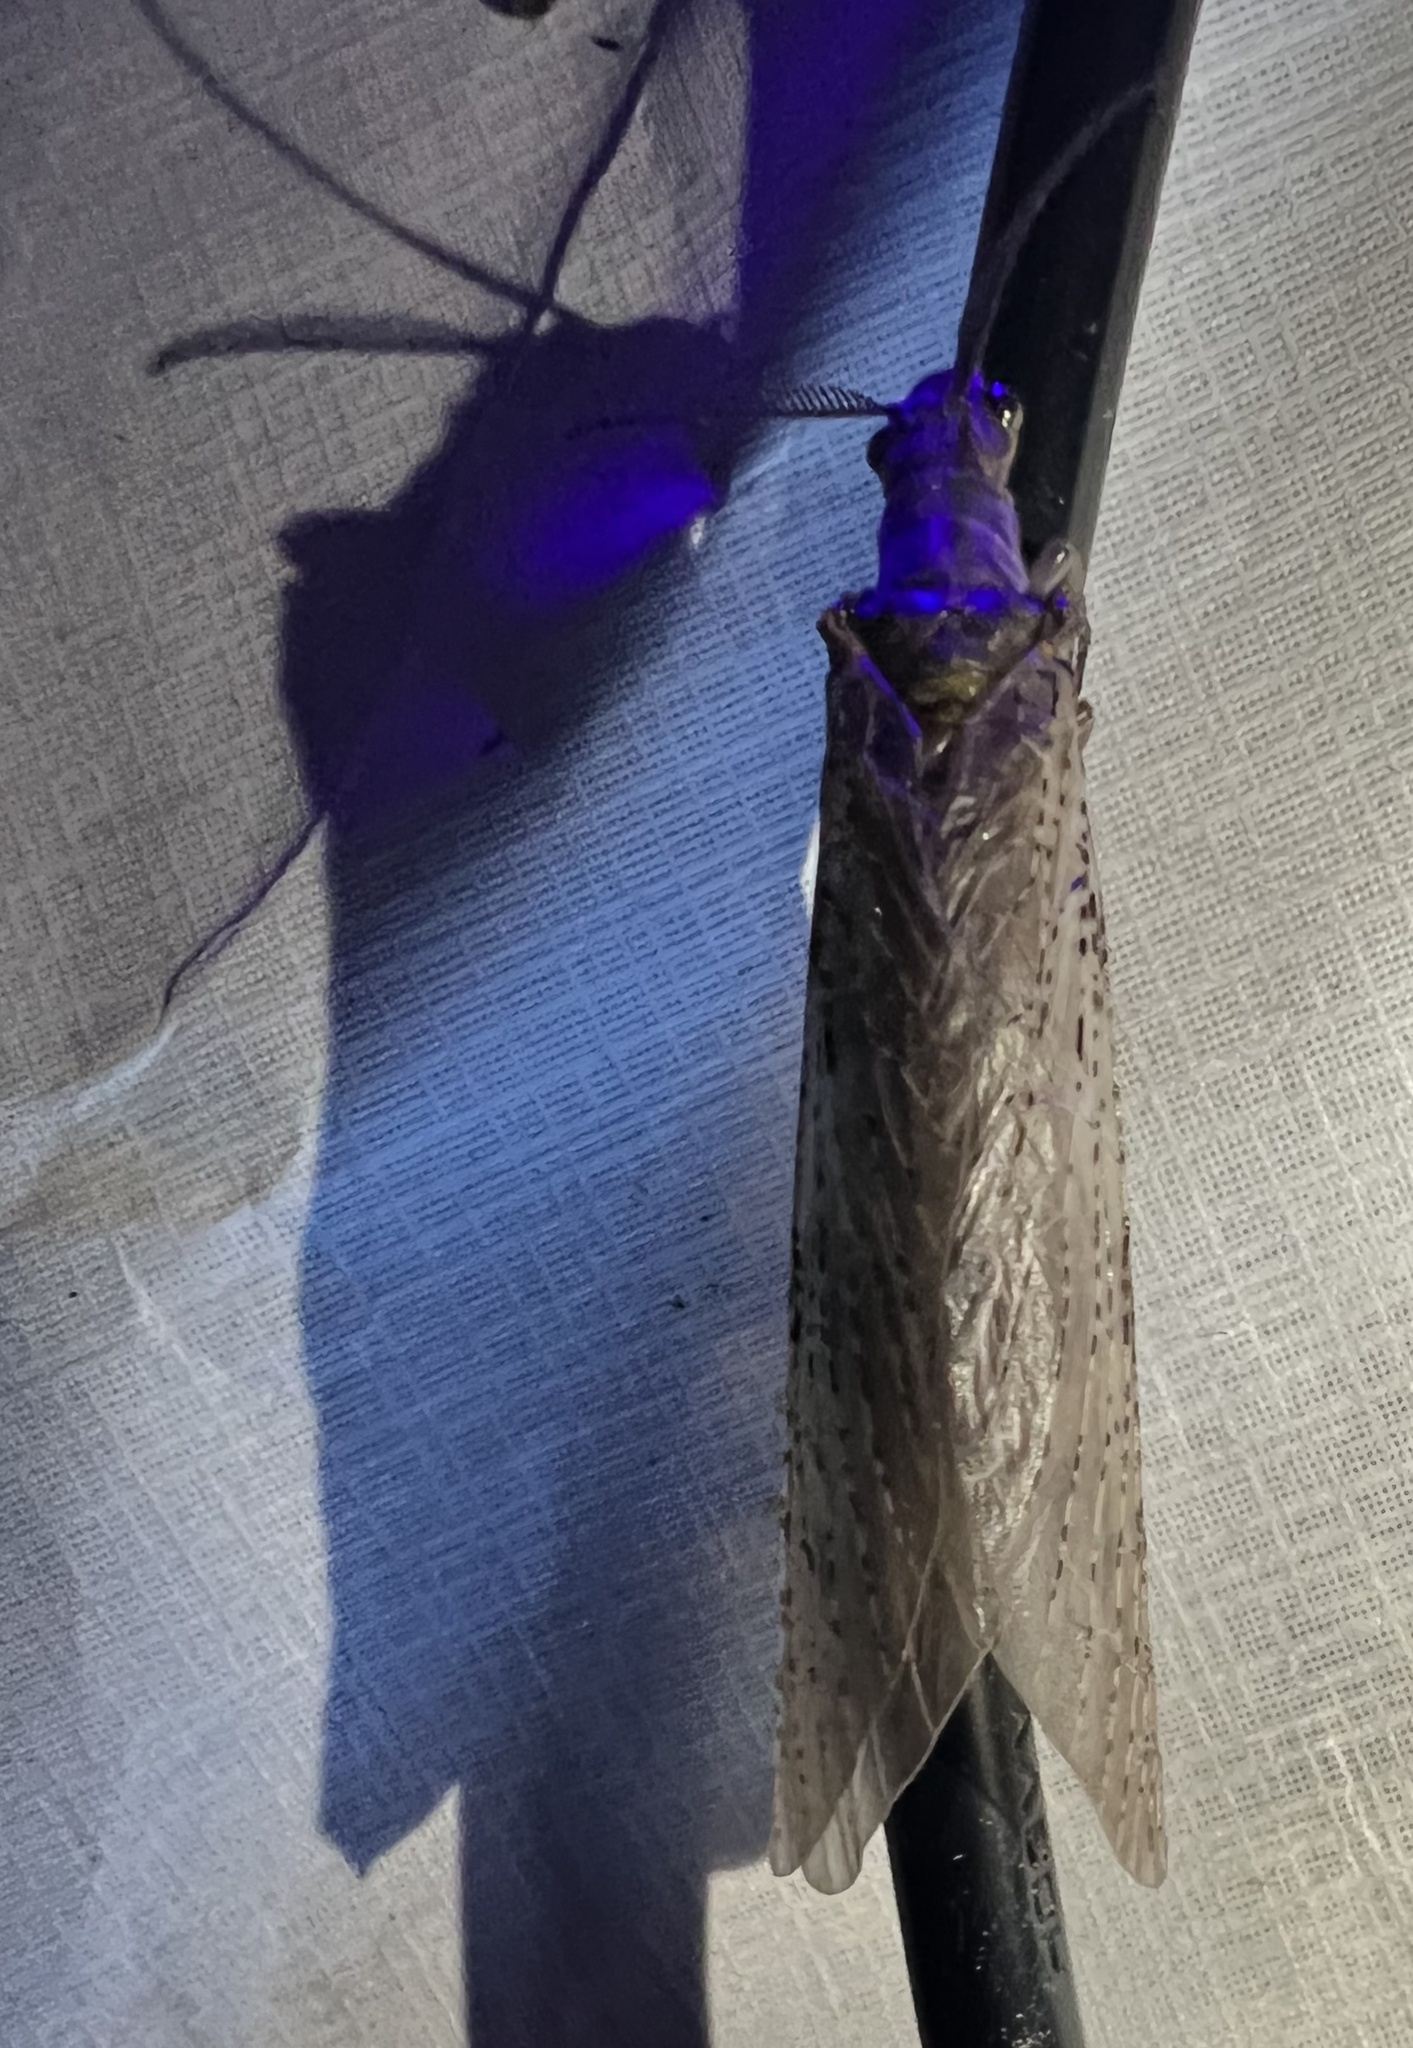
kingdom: Animalia
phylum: Arthropoda
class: Insecta
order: Megaloptera
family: Corydalidae
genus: Chauliodes
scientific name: Chauliodes pectinicornis
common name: Summer fishfly
